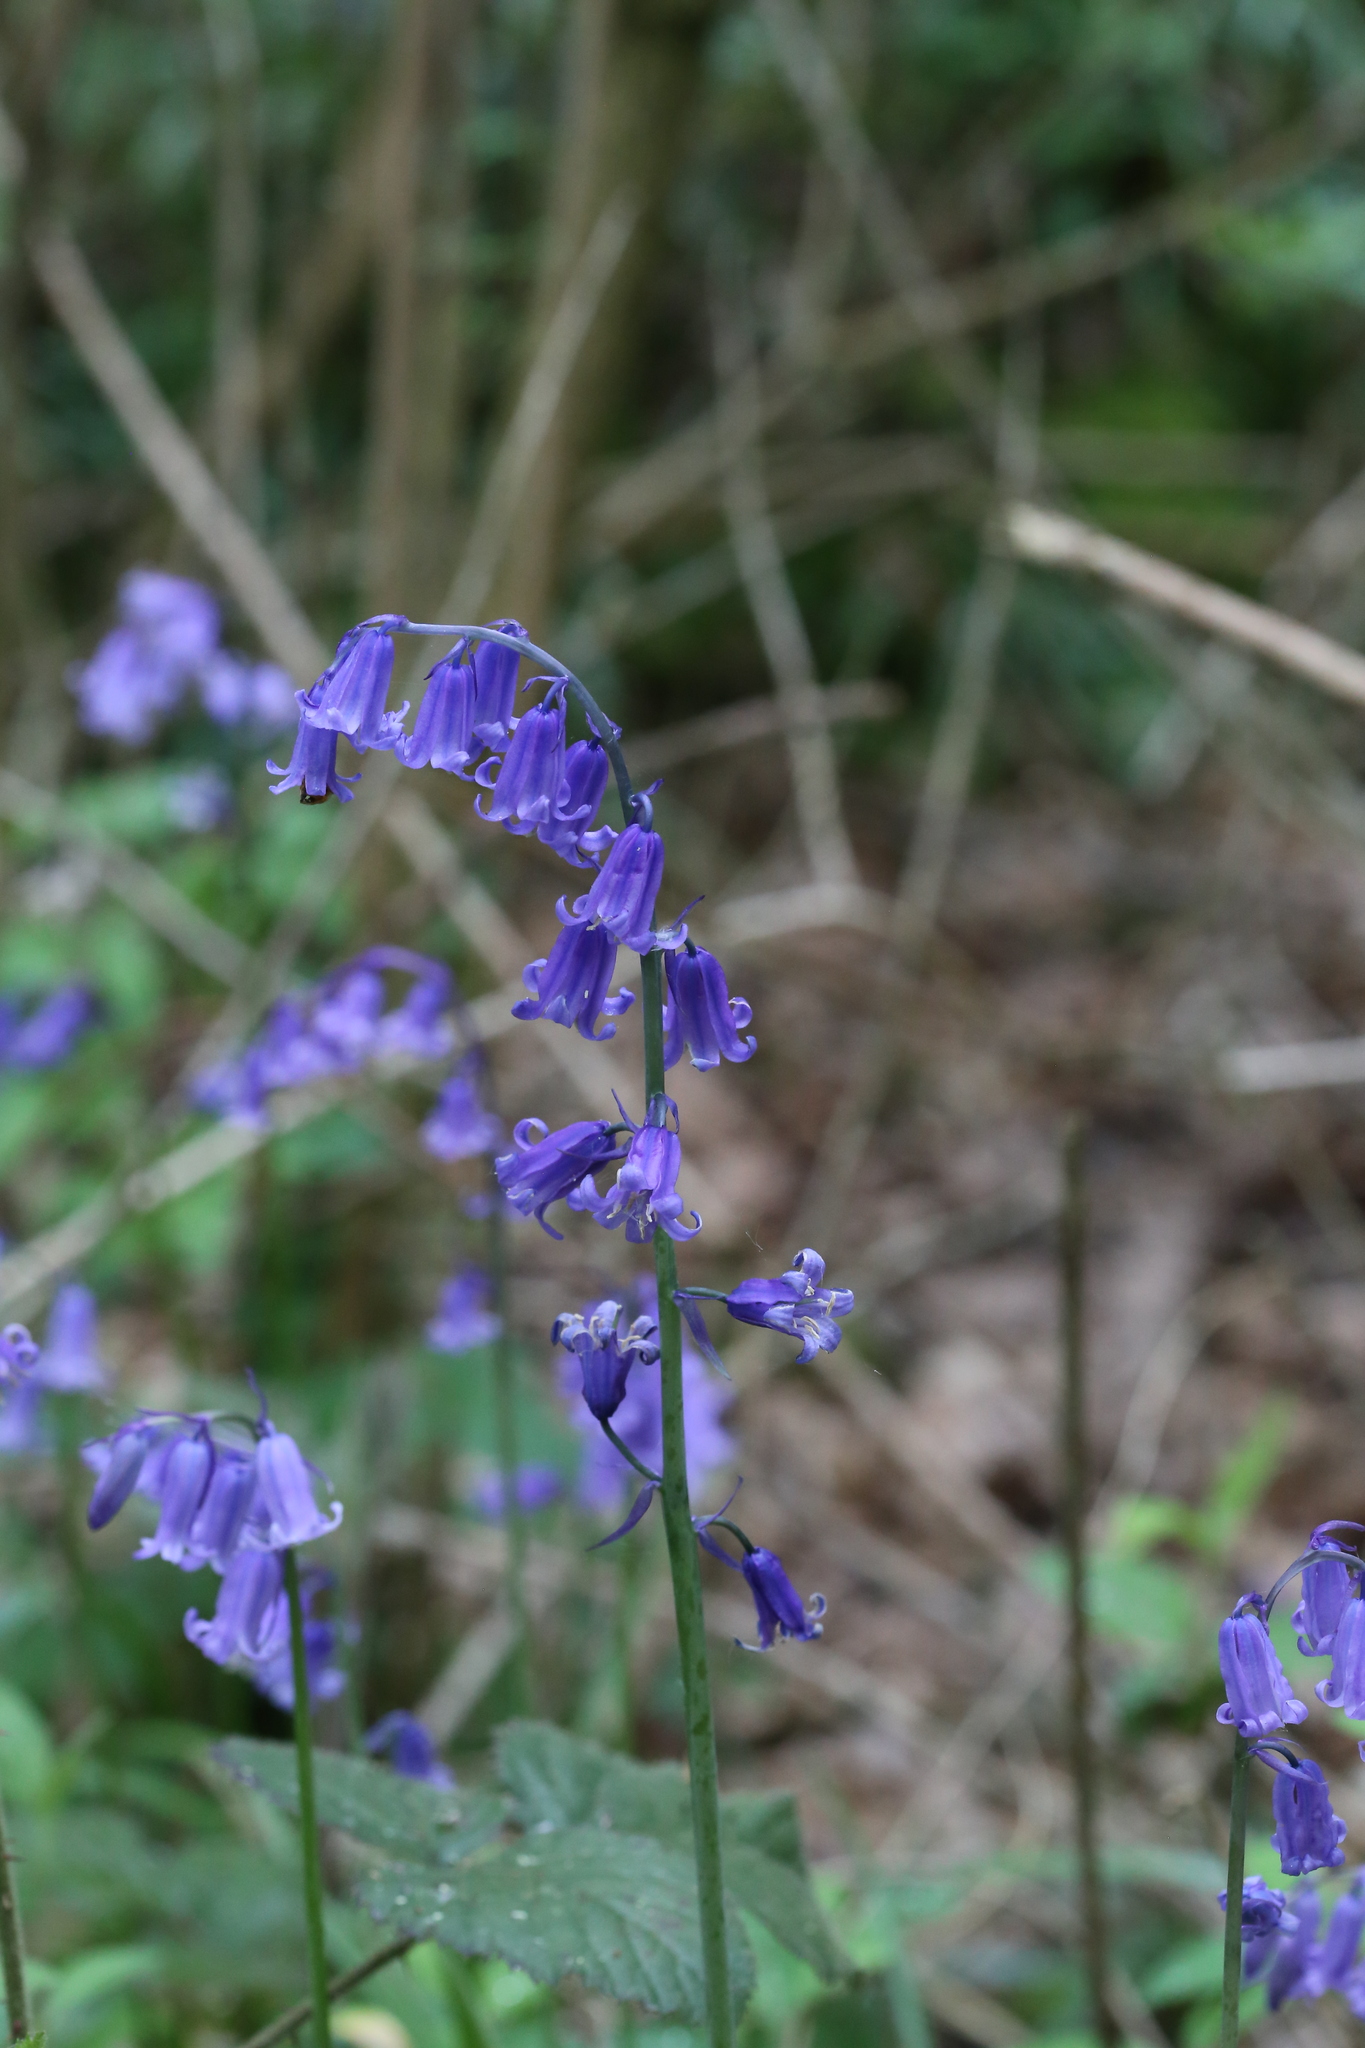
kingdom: Plantae
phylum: Tracheophyta
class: Liliopsida
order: Asparagales
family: Asparagaceae
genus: Hyacinthoides
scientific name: Hyacinthoides non-scripta
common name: Bluebell
